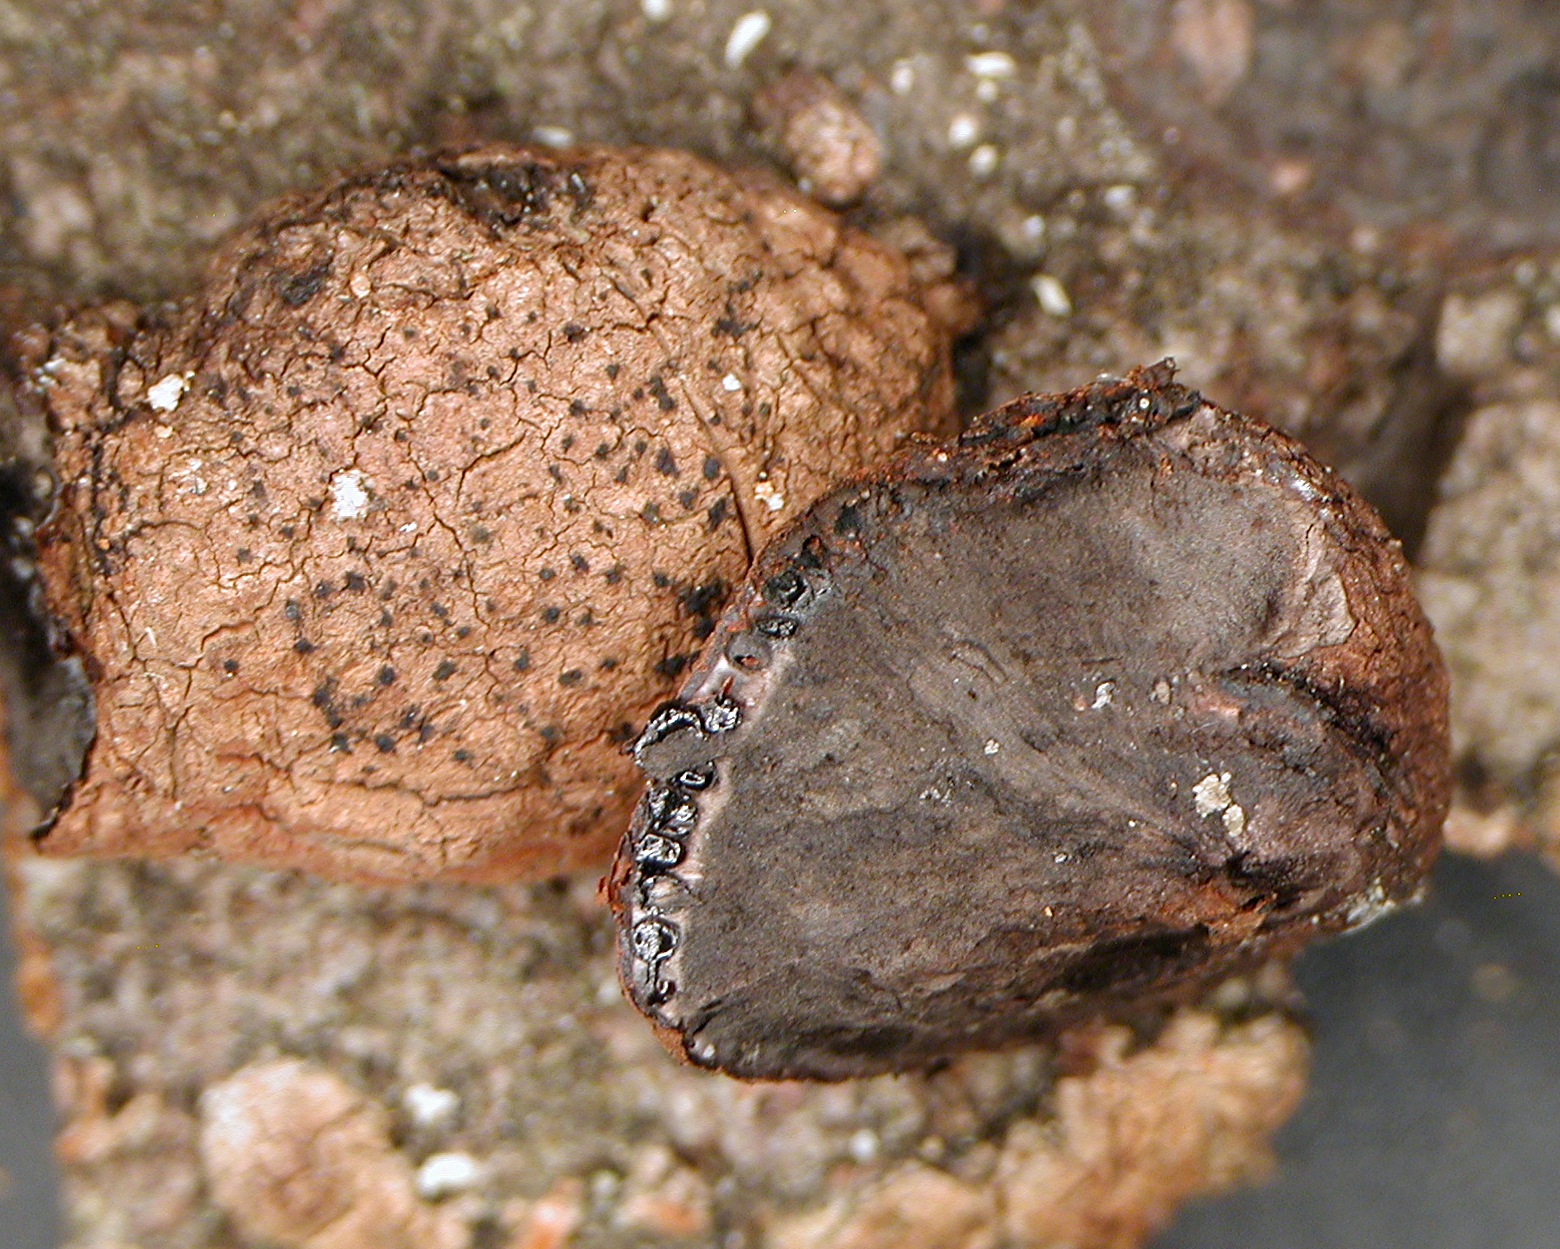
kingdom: Fungi
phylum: Ascomycota
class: Sordariomycetes
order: Xylariales
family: Hypoxylaceae
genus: Hypoxylon
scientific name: Hypoxylon howeanum
